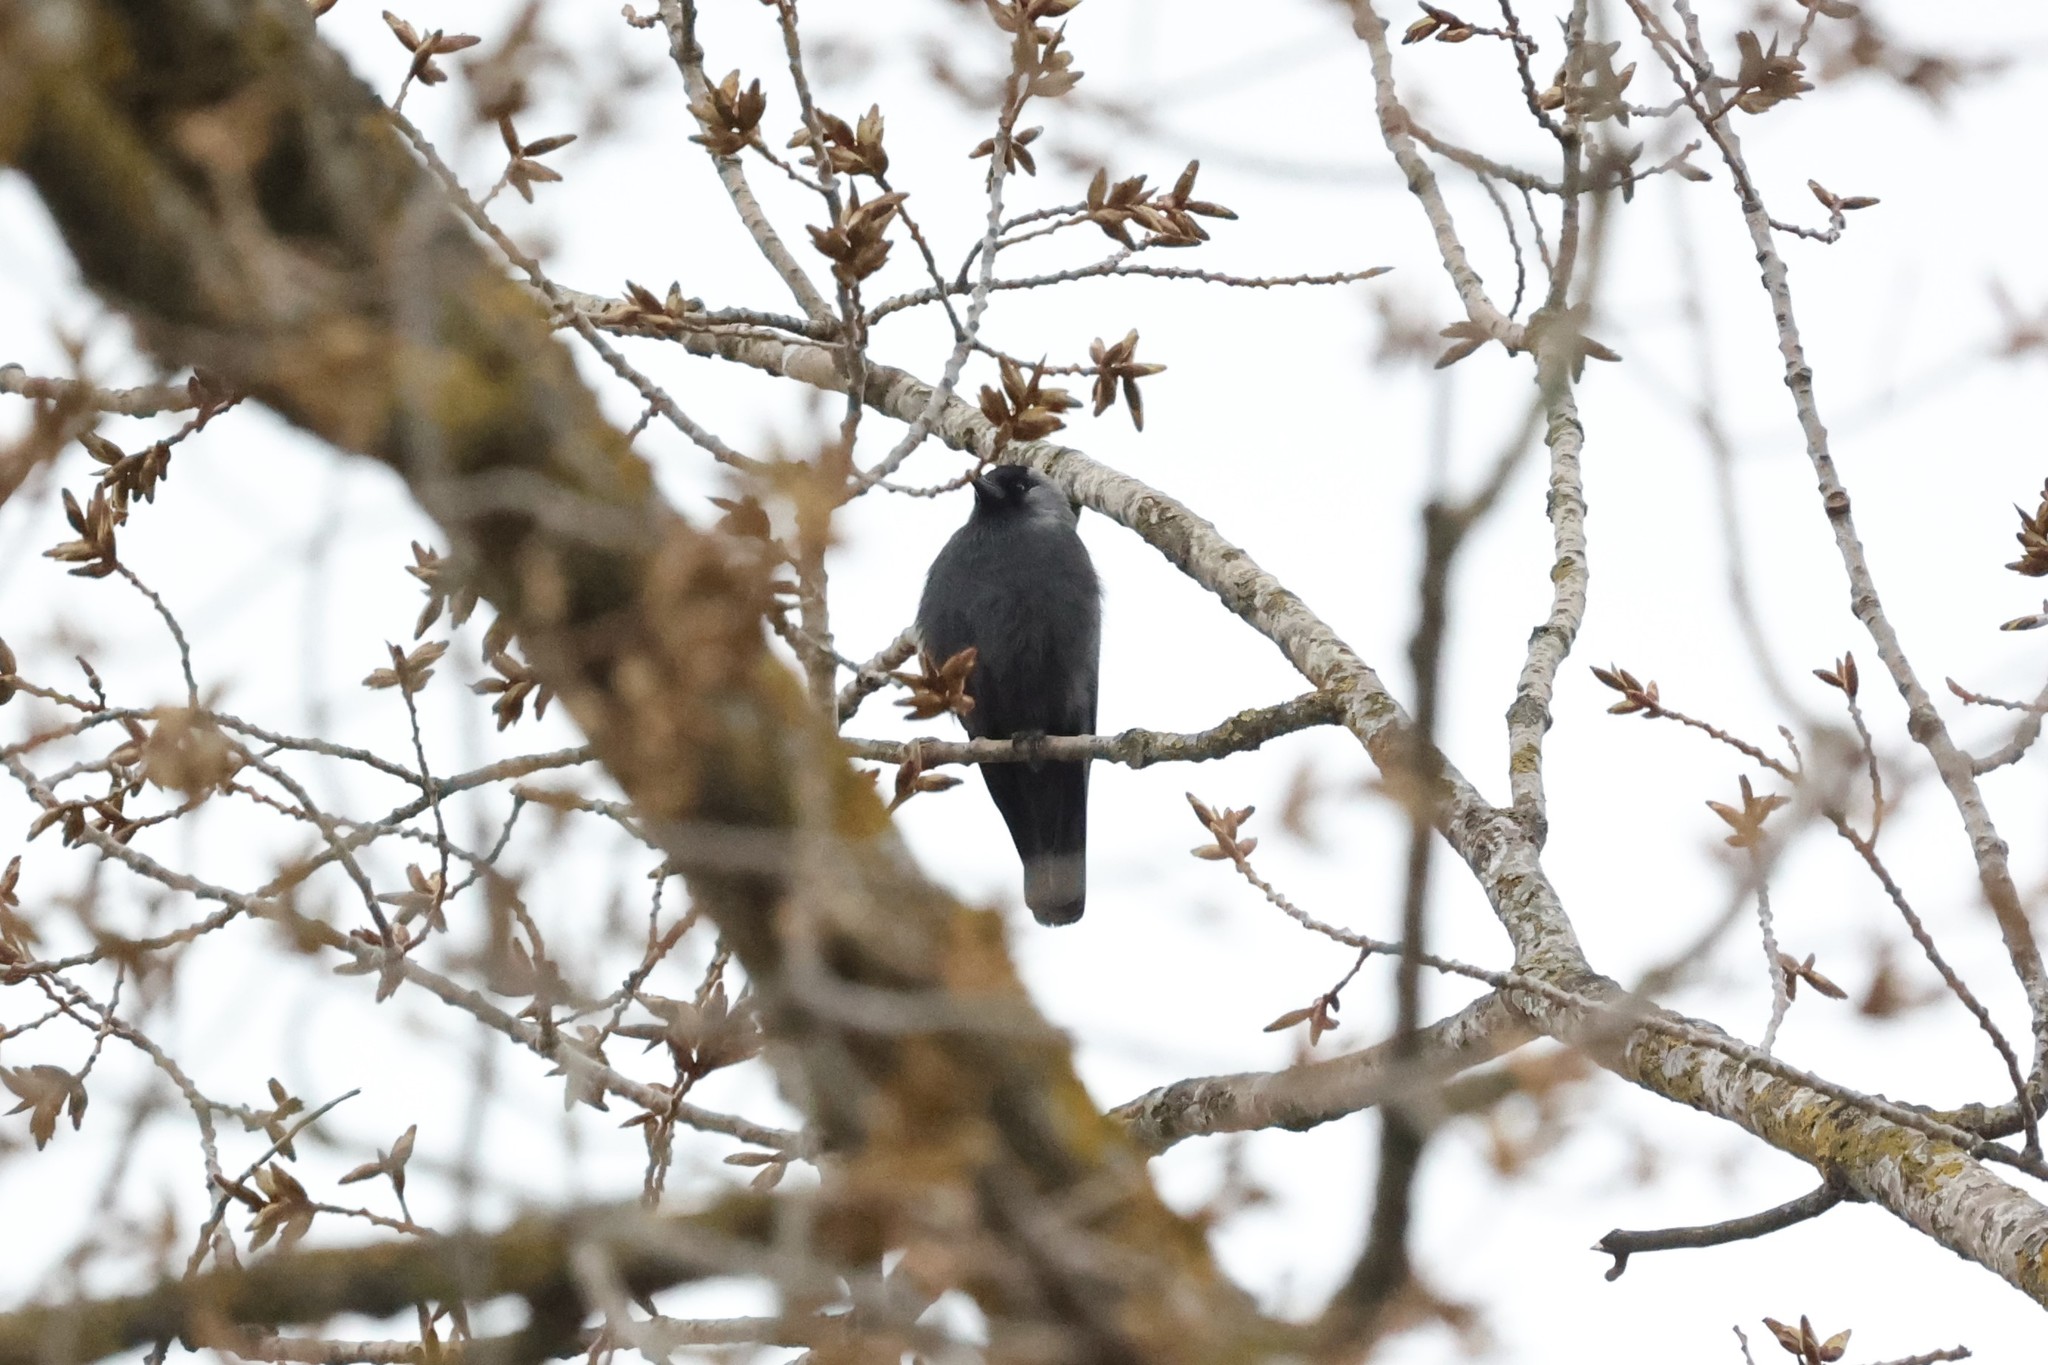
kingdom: Animalia
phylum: Chordata
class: Aves
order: Passeriformes
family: Corvidae
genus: Coloeus
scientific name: Coloeus monedula
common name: Western jackdaw
